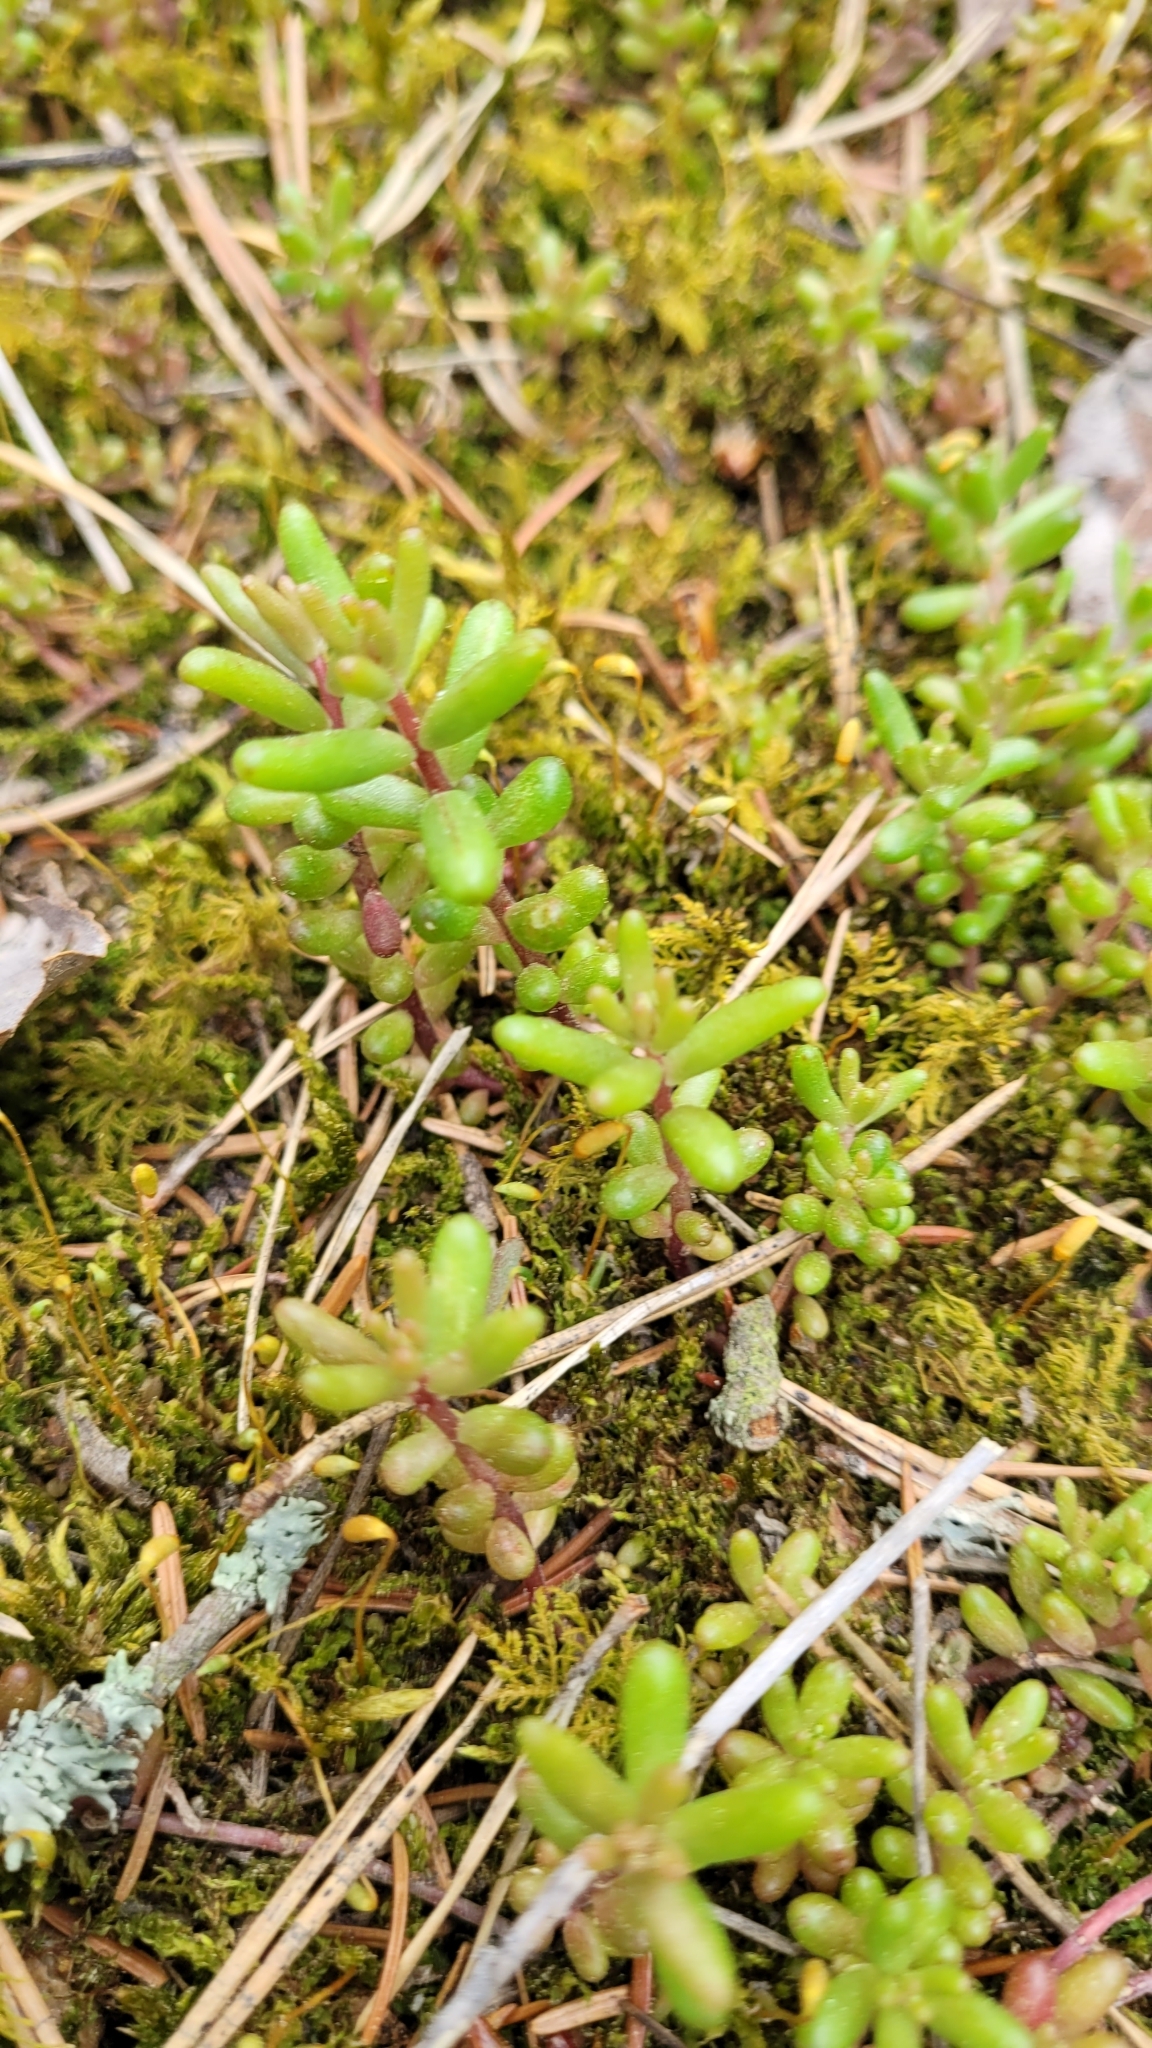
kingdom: Plantae
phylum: Tracheophyta
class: Magnoliopsida
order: Saxifragales
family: Crassulaceae
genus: Sedum
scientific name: Sedum album
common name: White stonecrop
